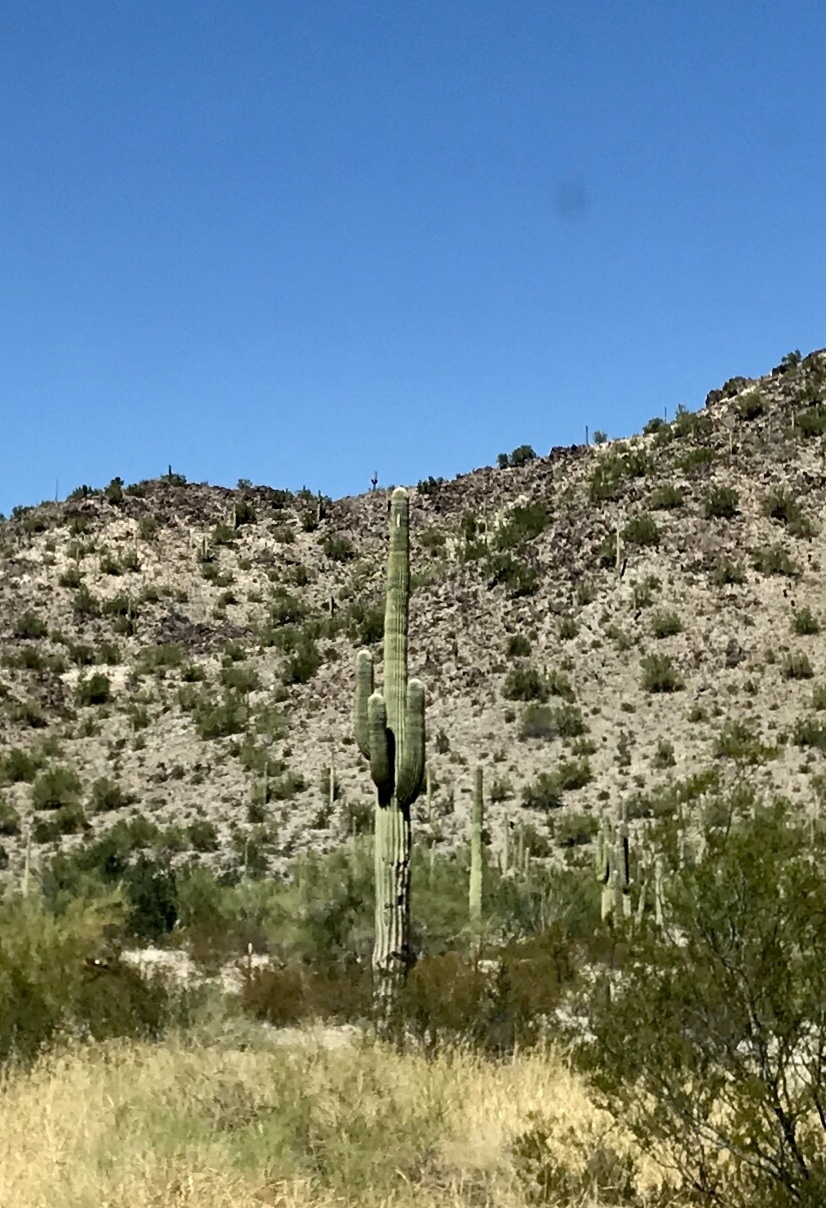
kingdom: Plantae
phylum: Tracheophyta
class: Magnoliopsida
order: Caryophyllales
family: Cactaceae
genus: Carnegiea
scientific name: Carnegiea gigantea
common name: Saguaro
